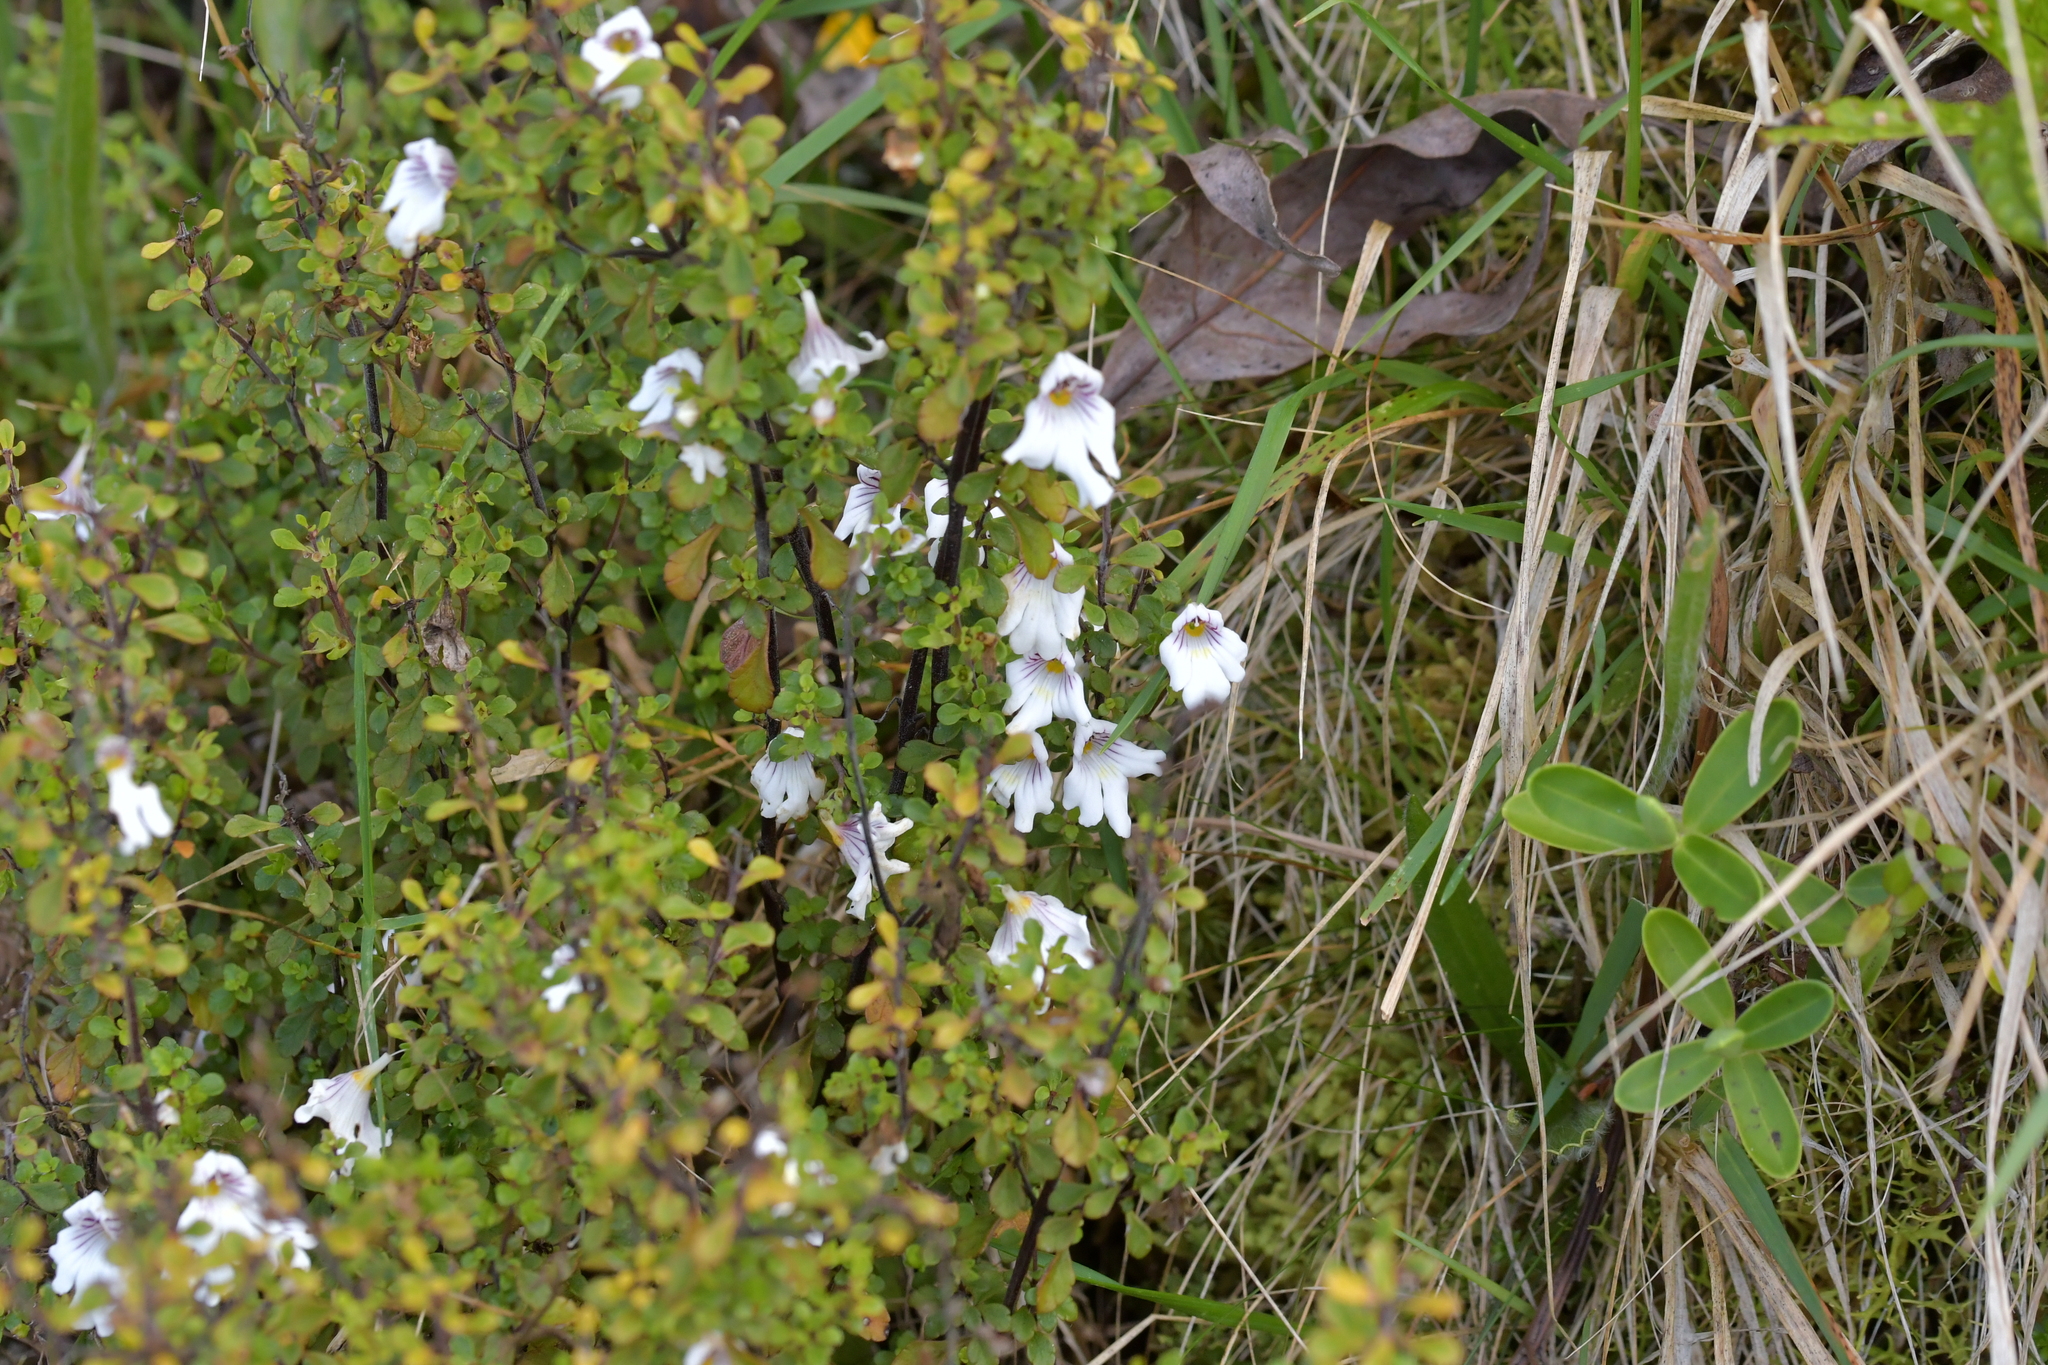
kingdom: Plantae
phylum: Tracheophyta
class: Magnoliopsida
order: Lamiales
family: Orobanchaceae
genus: Euphrasia
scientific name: Euphrasia cuneata
